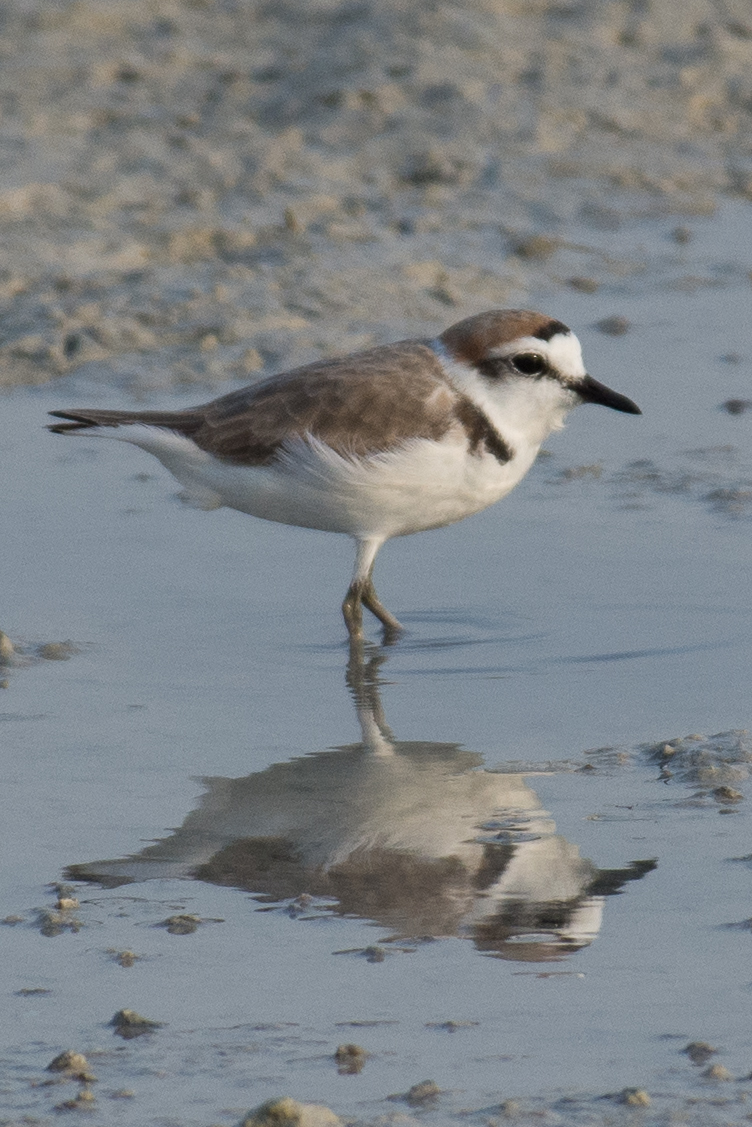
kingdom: Animalia
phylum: Chordata
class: Aves
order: Charadriiformes
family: Charadriidae
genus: Charadrius
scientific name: Charadrius alexandrinus
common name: Kentish plover
